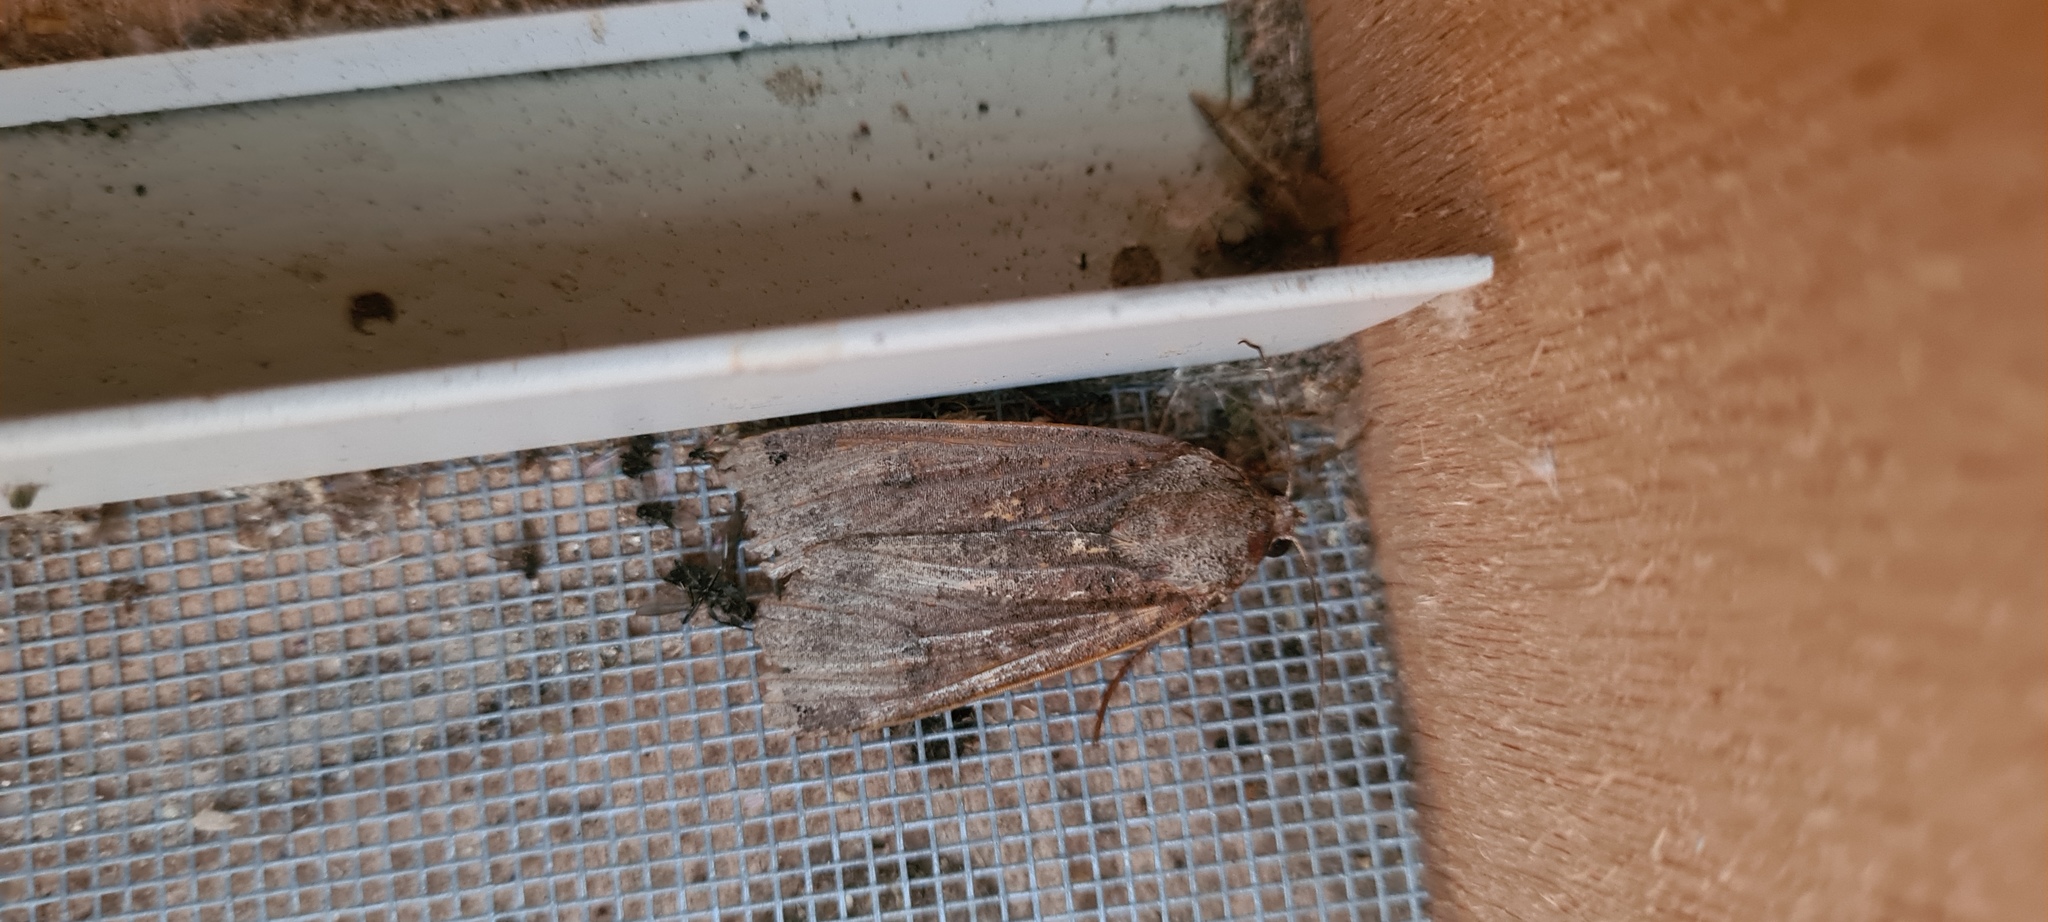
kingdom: Animalia
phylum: Arthropoda
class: Insecta
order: Lepidoptera
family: Noctuidae
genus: Noctua
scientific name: Noctua pronuba
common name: Large yellow underwing
